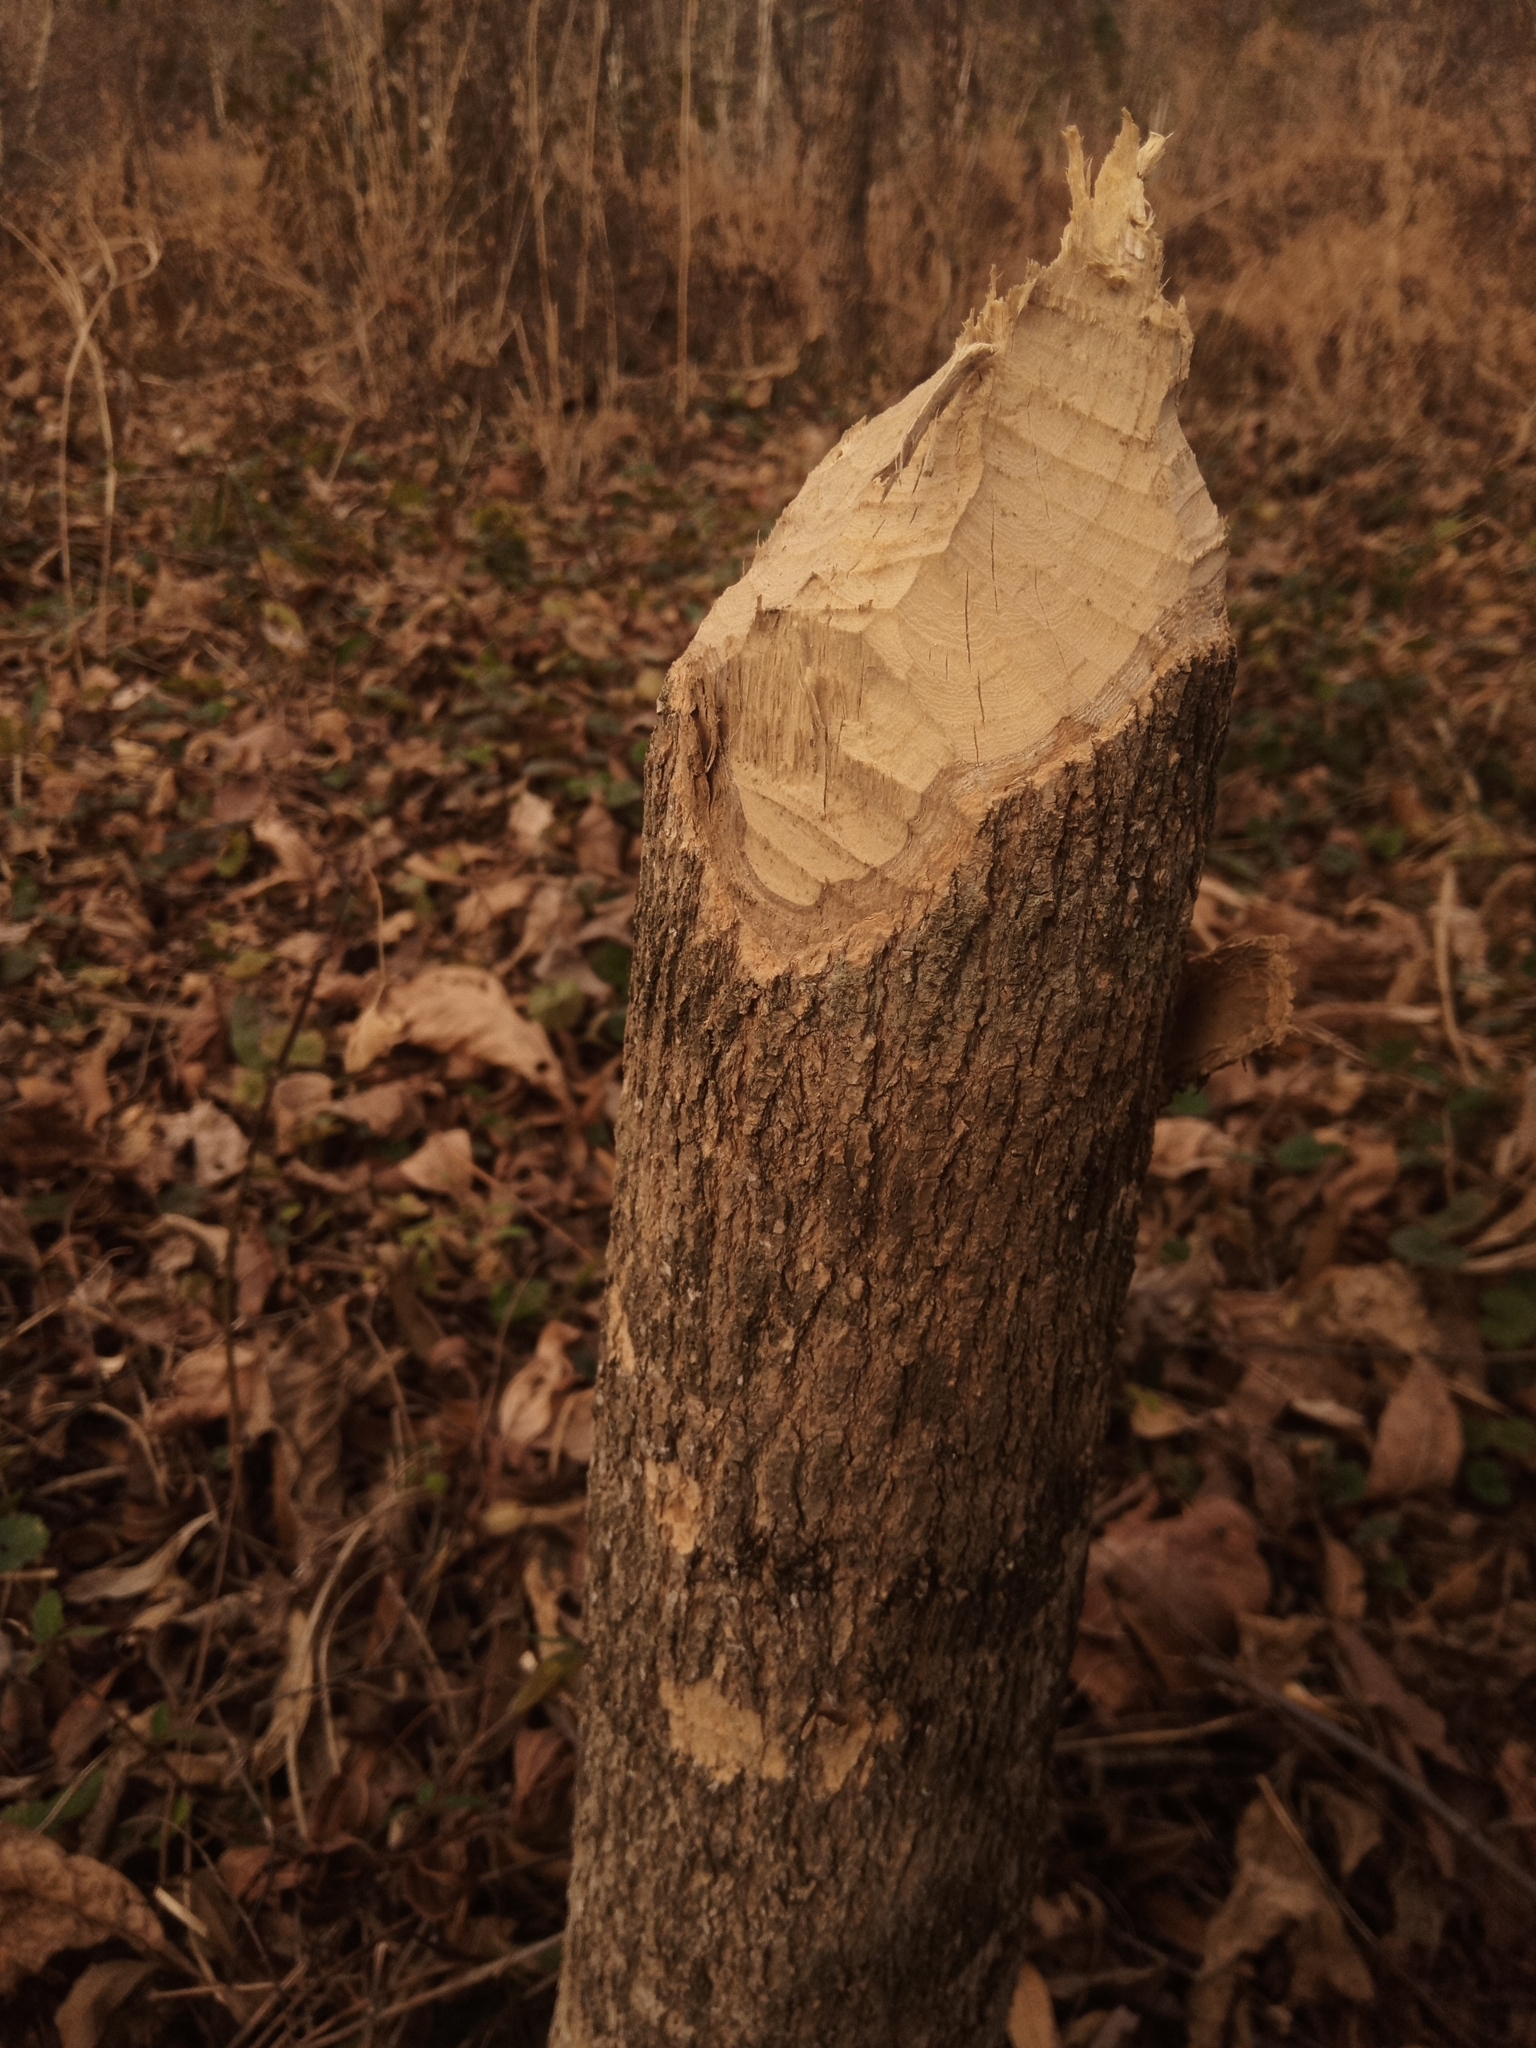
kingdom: Animalia
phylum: Chordata
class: Mammalia
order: Rodentia
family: Castoridae
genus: Castor
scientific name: Castor canadensis
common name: American beaver
